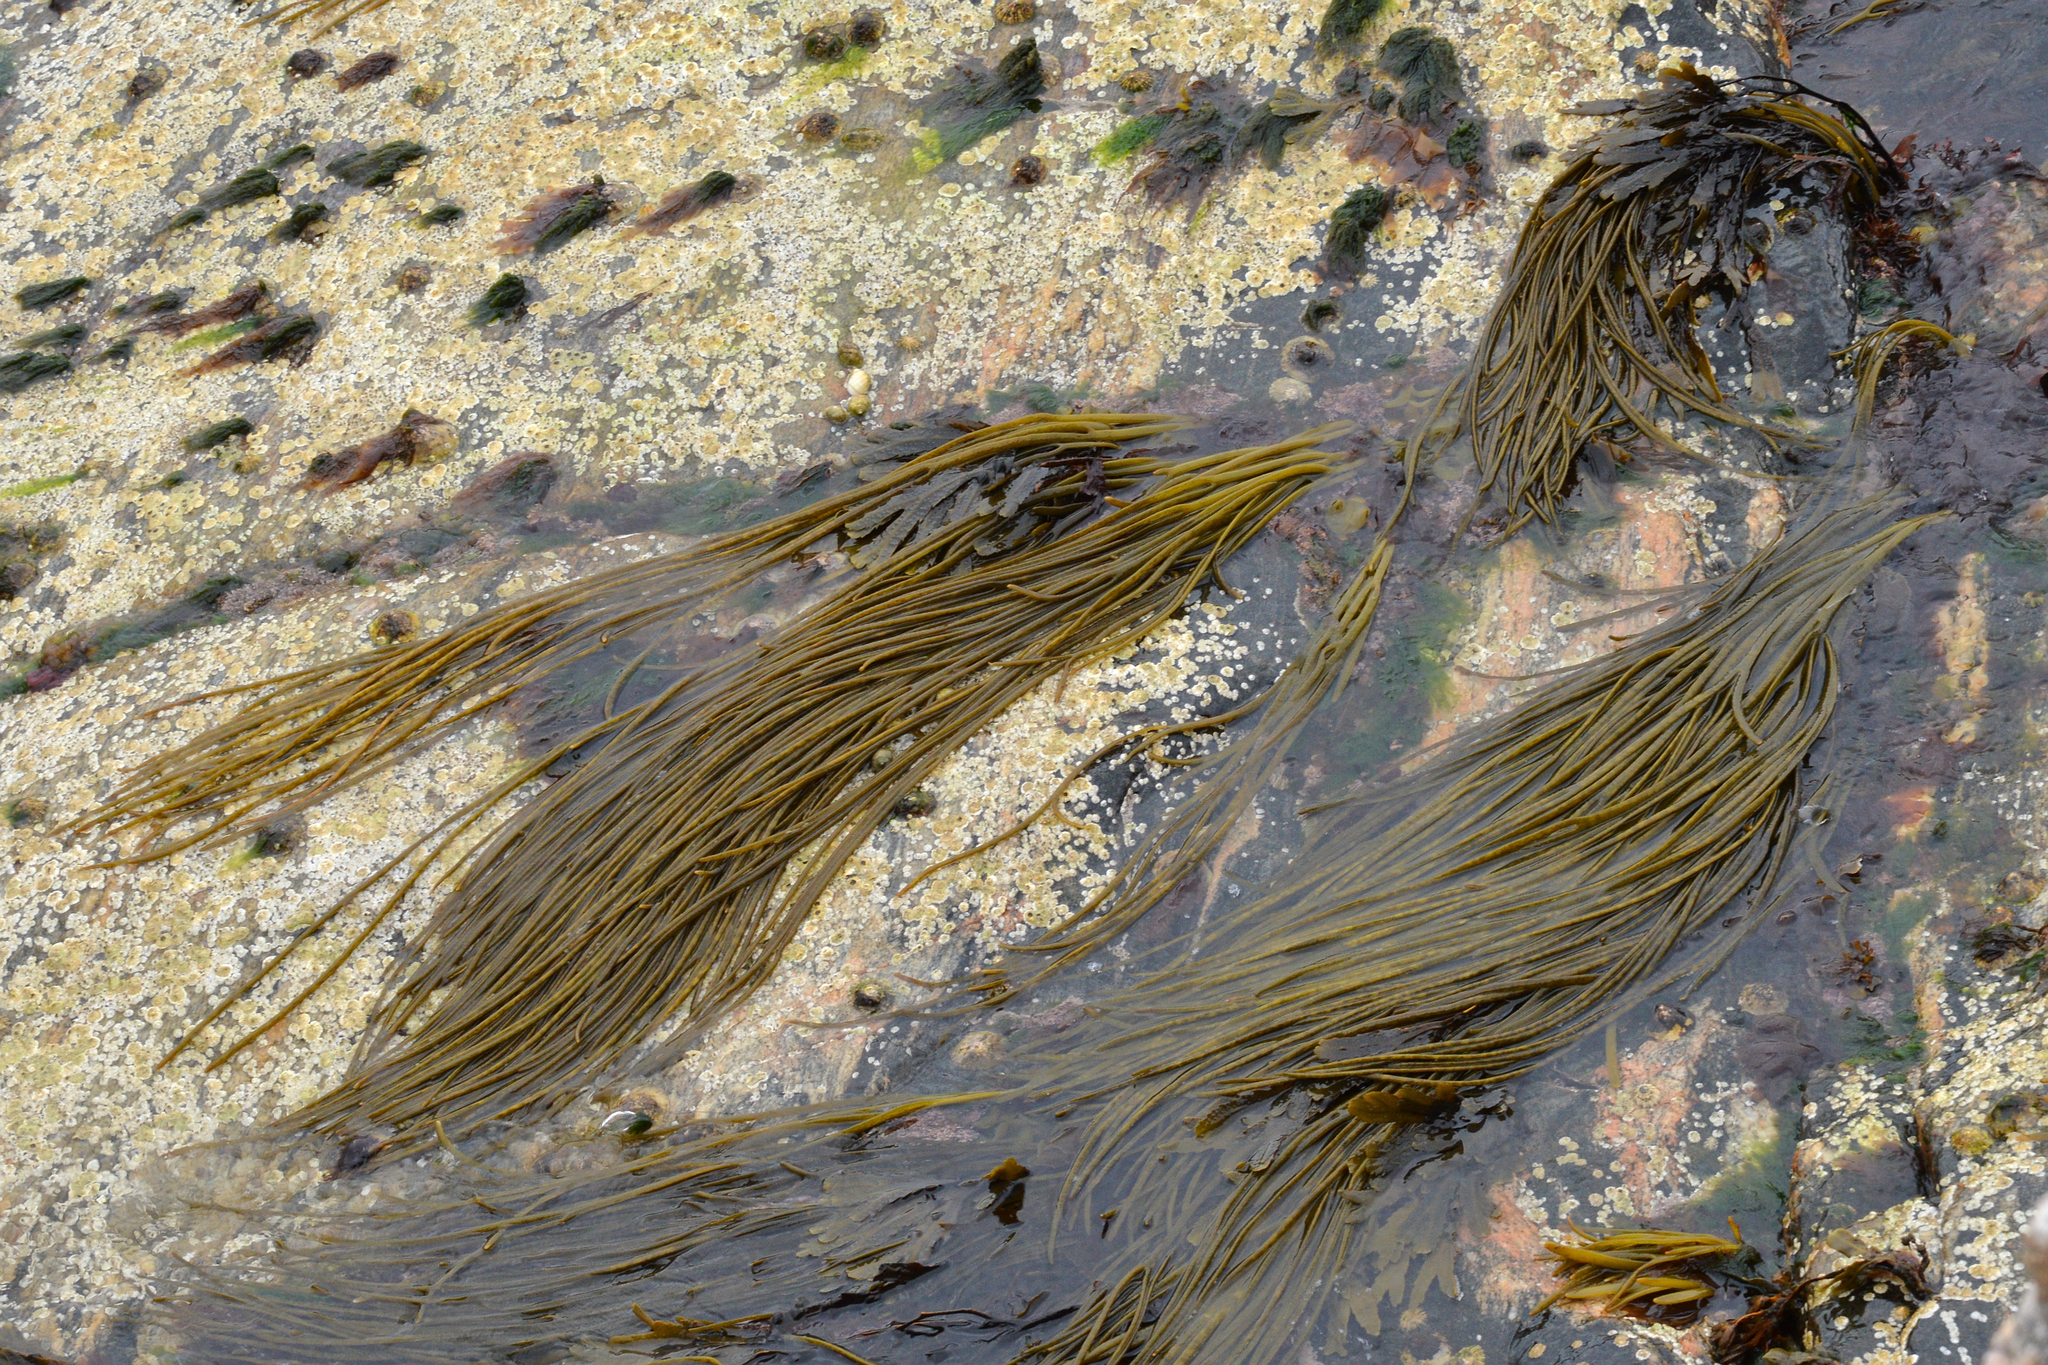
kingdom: Chromista
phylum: Ochrophyta
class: Phaeophyceae
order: Fucales
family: Himanthaliaceae
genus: Himanthalia
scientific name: Himanthalia elongata
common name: Sea-thong
